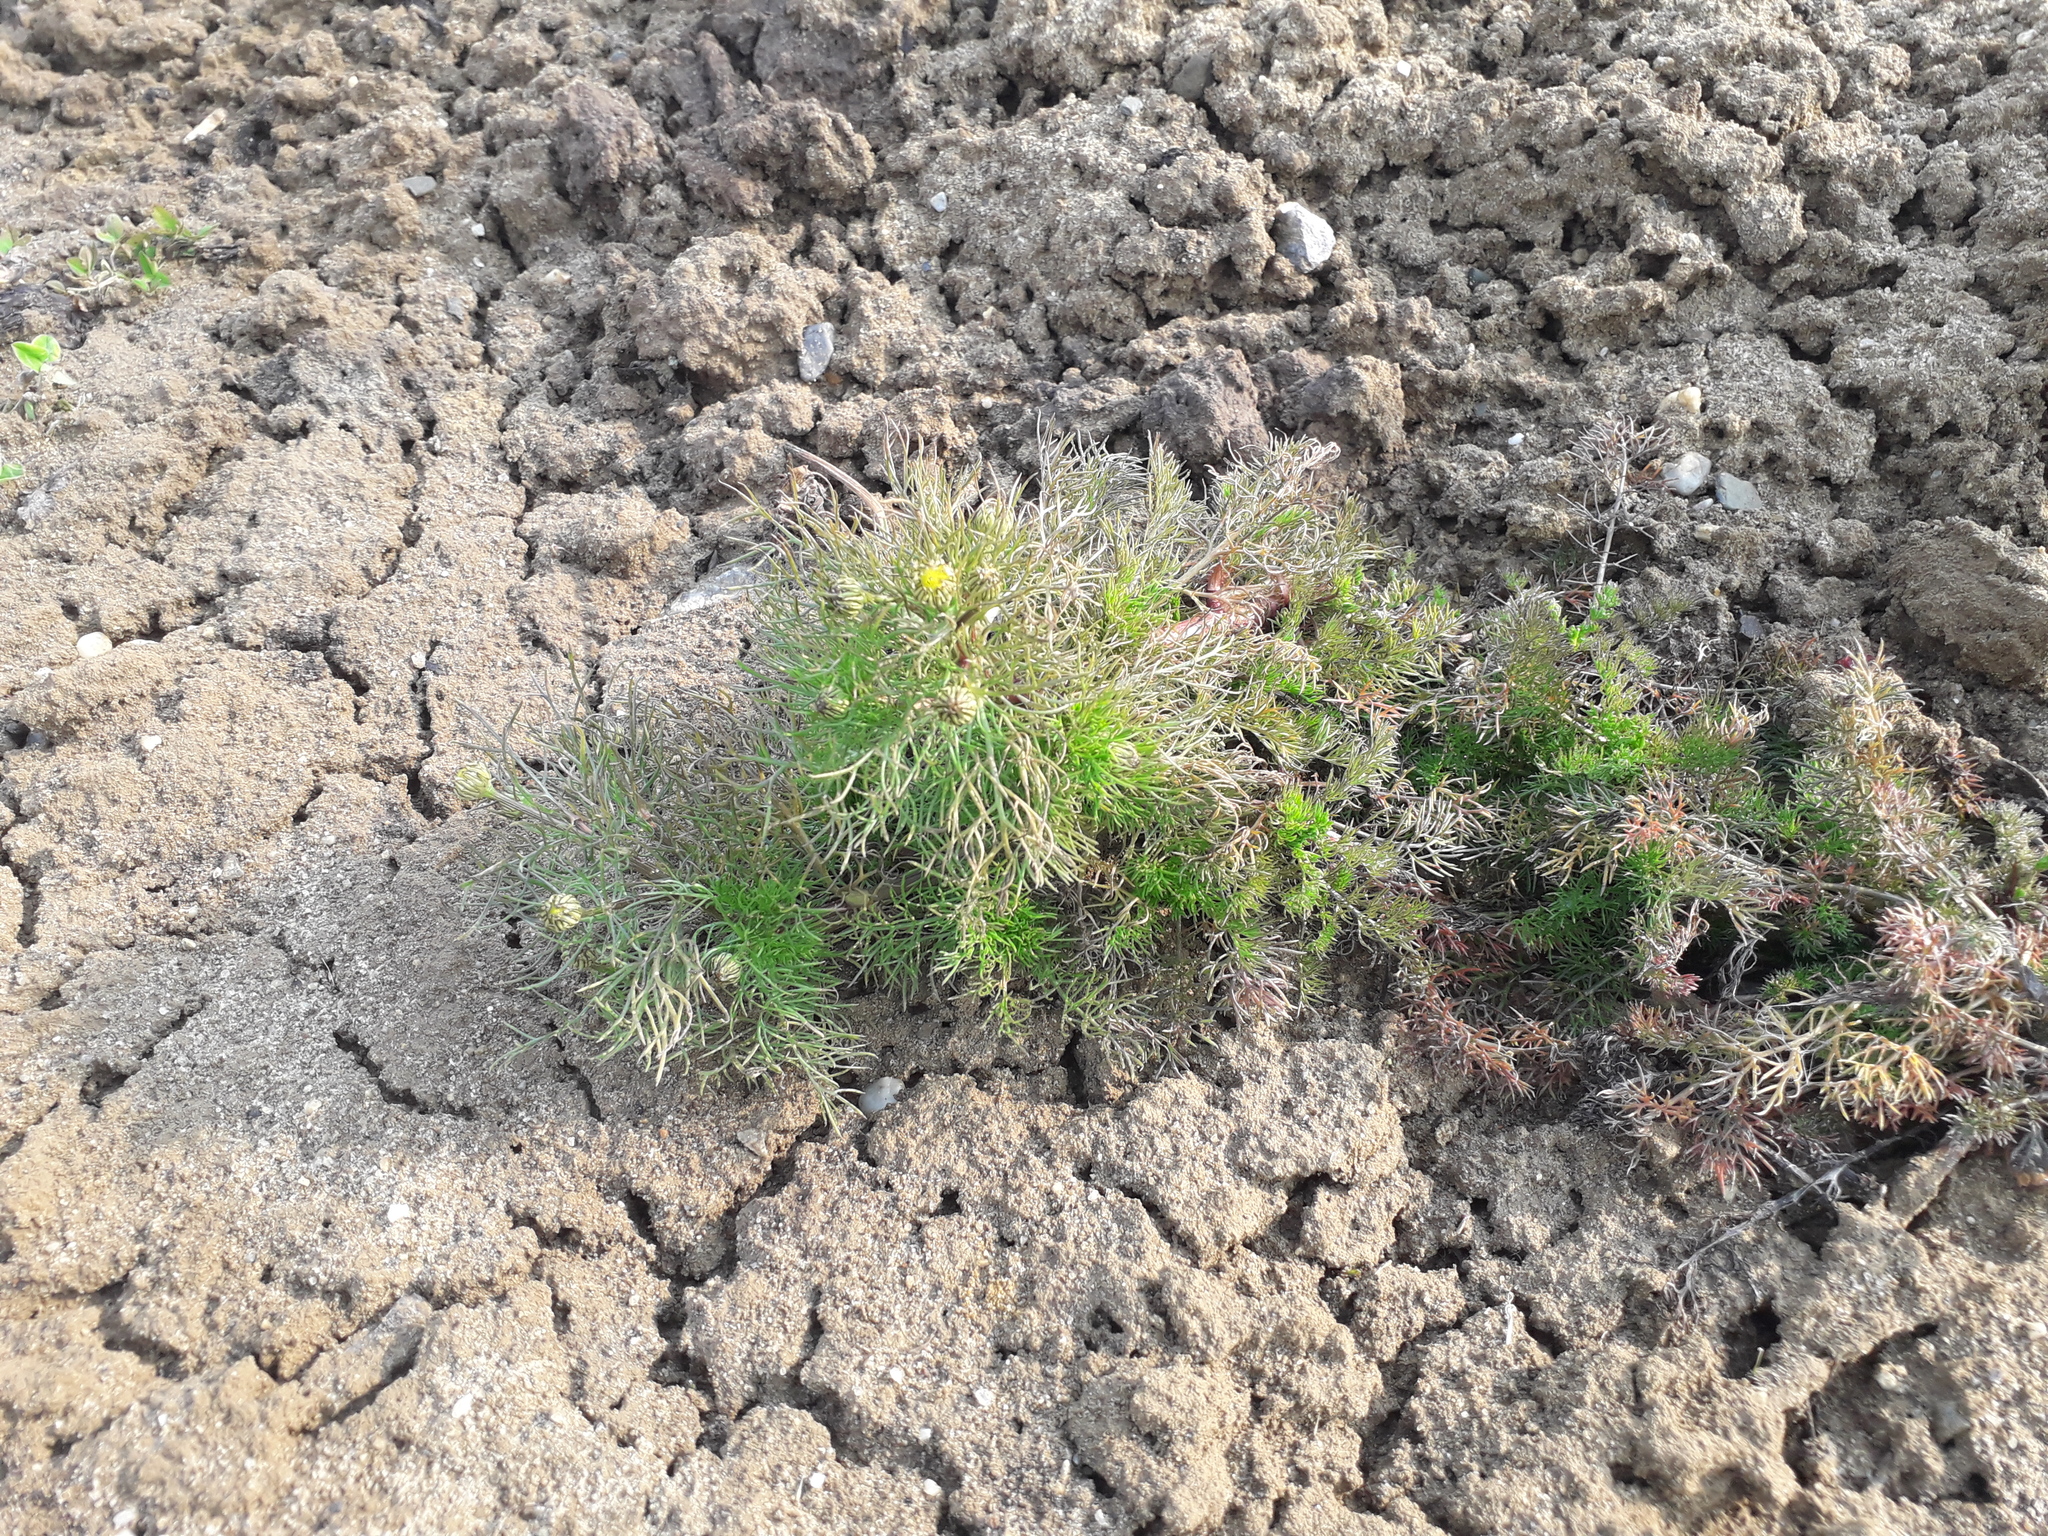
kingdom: Plantae
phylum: Tracheophyta
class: Magnoliopsida
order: Asterales
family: Asteraceae
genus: Tripleurospermum
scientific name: Tripleurospermum inodorum
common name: Scentless mayweed
